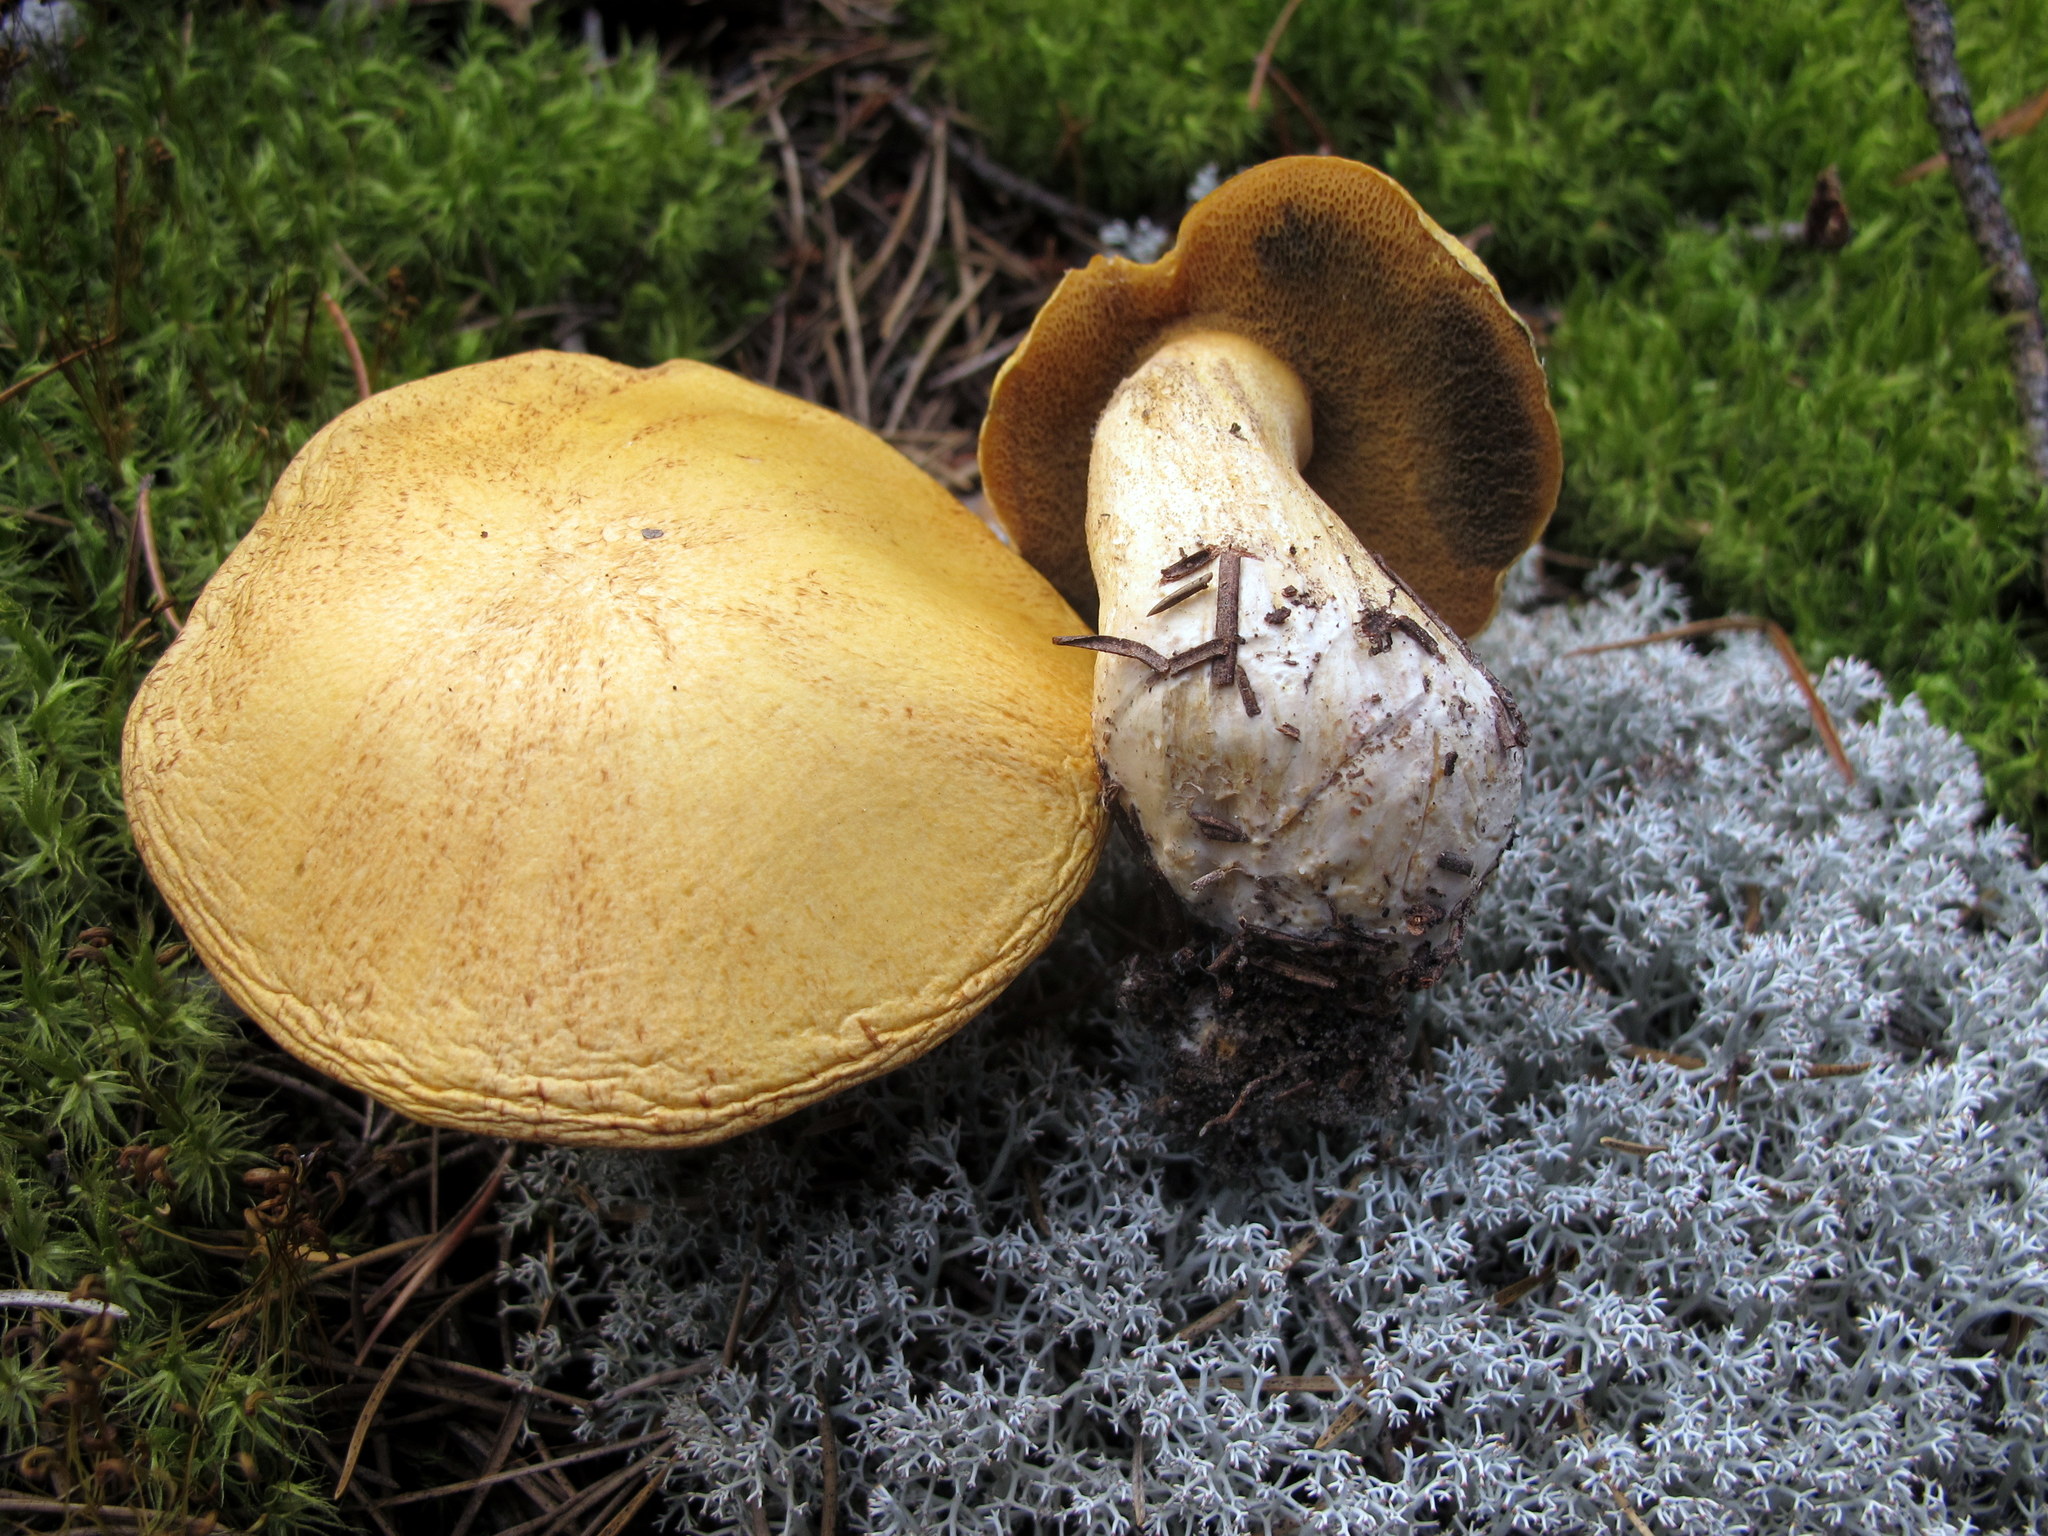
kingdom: Fungi
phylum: Basidiomycota
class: Agaricomycetes
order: Boletales
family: Suillaceae
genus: Suillus
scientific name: Suillus tomentosus
